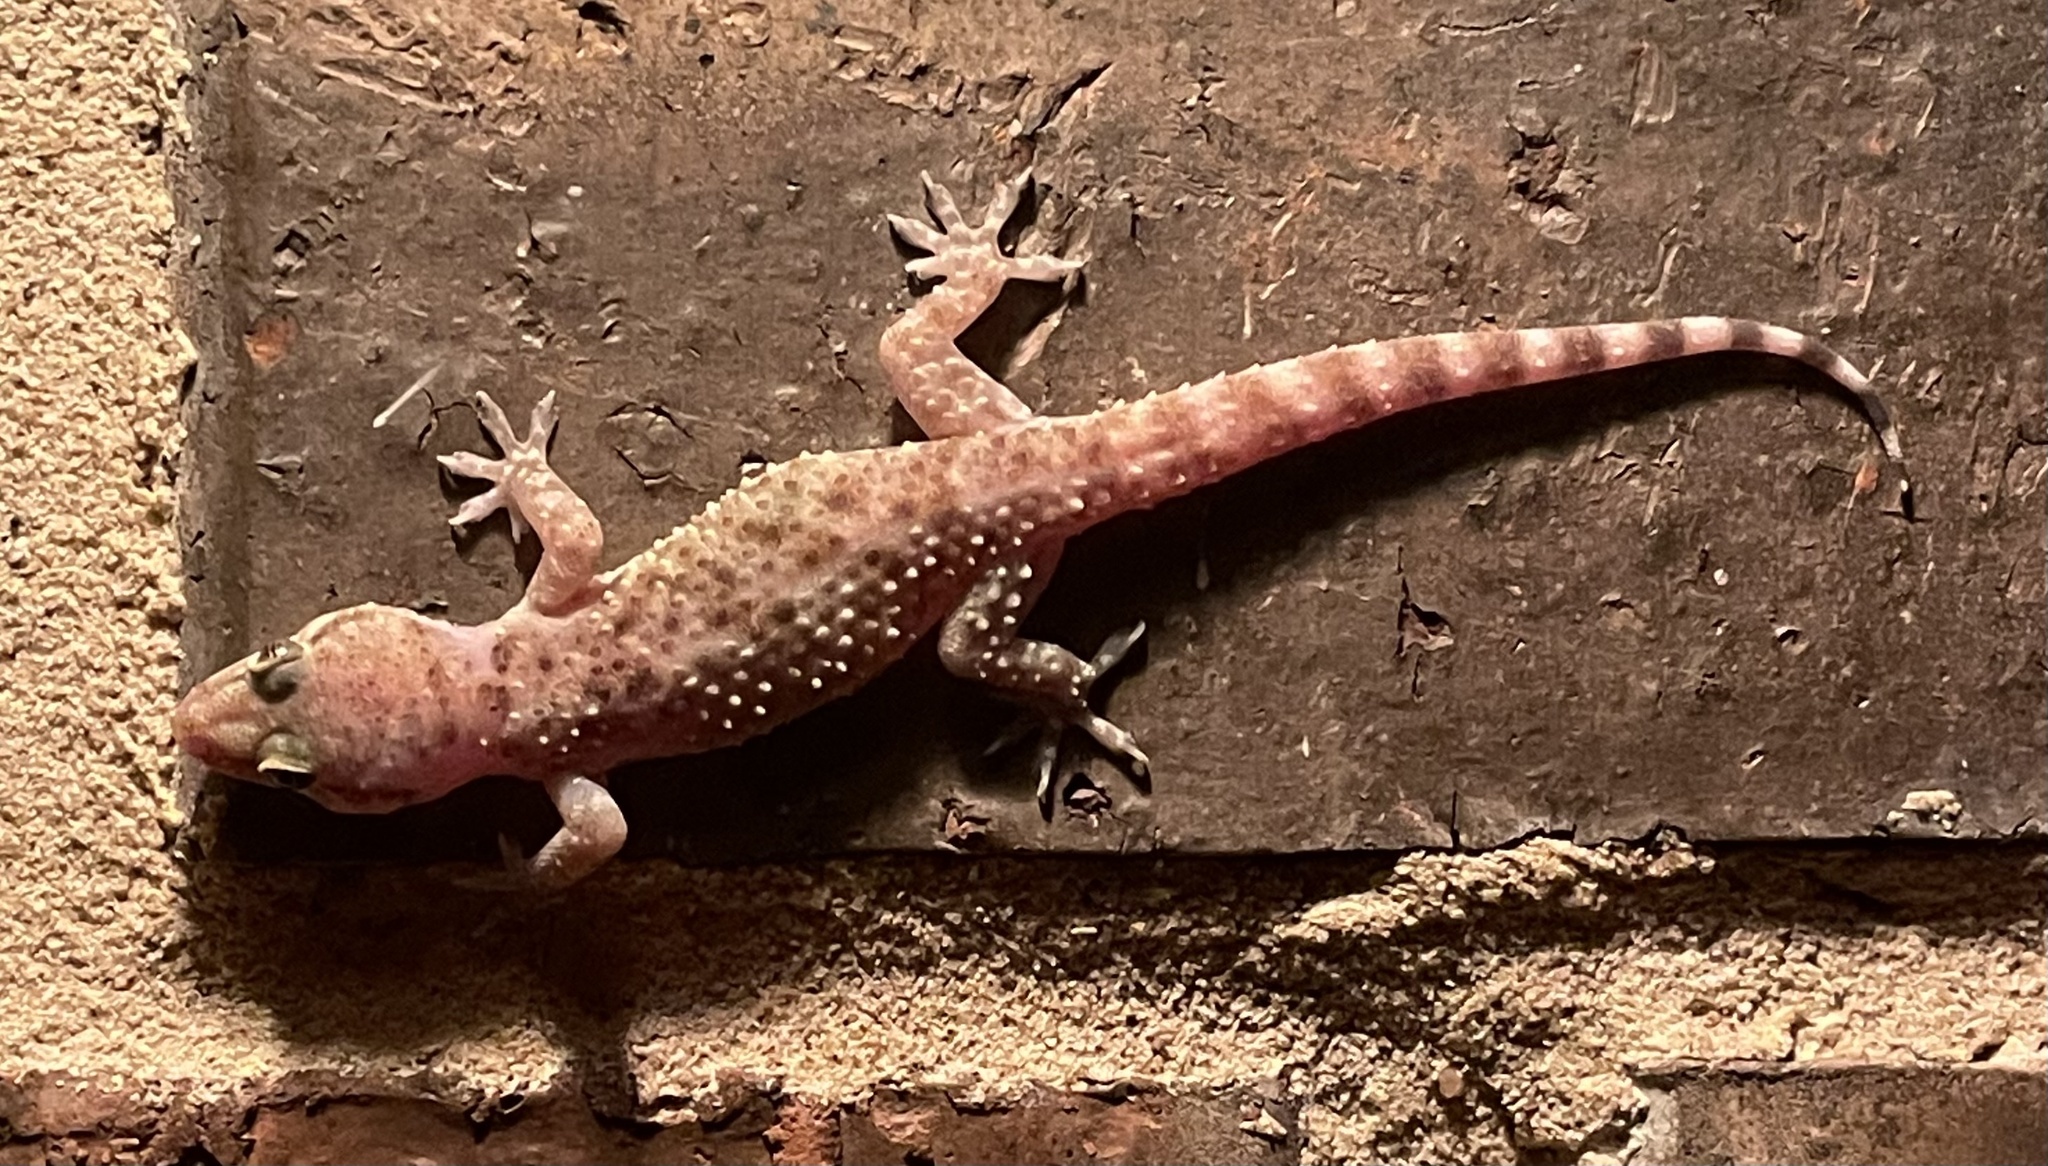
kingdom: Animalia
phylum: Chordata
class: Squamata
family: Gekkonidae
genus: Hemidactylus
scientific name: Hemidactylus turcicus
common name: Turkish gecko
